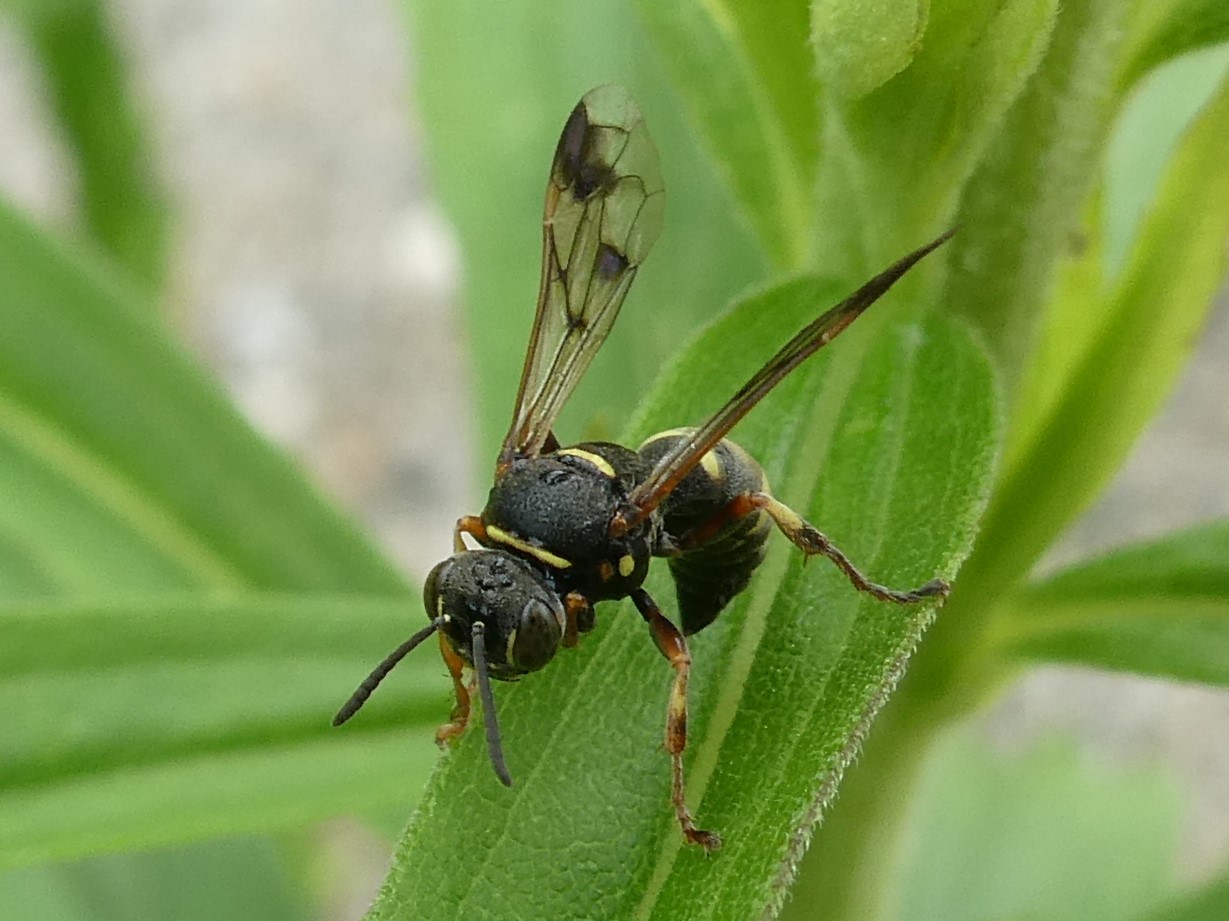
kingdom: Animalia
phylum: Arthropoda
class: Insecta
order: Hymenoptera
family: Crabronidae
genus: Hoplisoides
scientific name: Hoplisoides nebulosus
